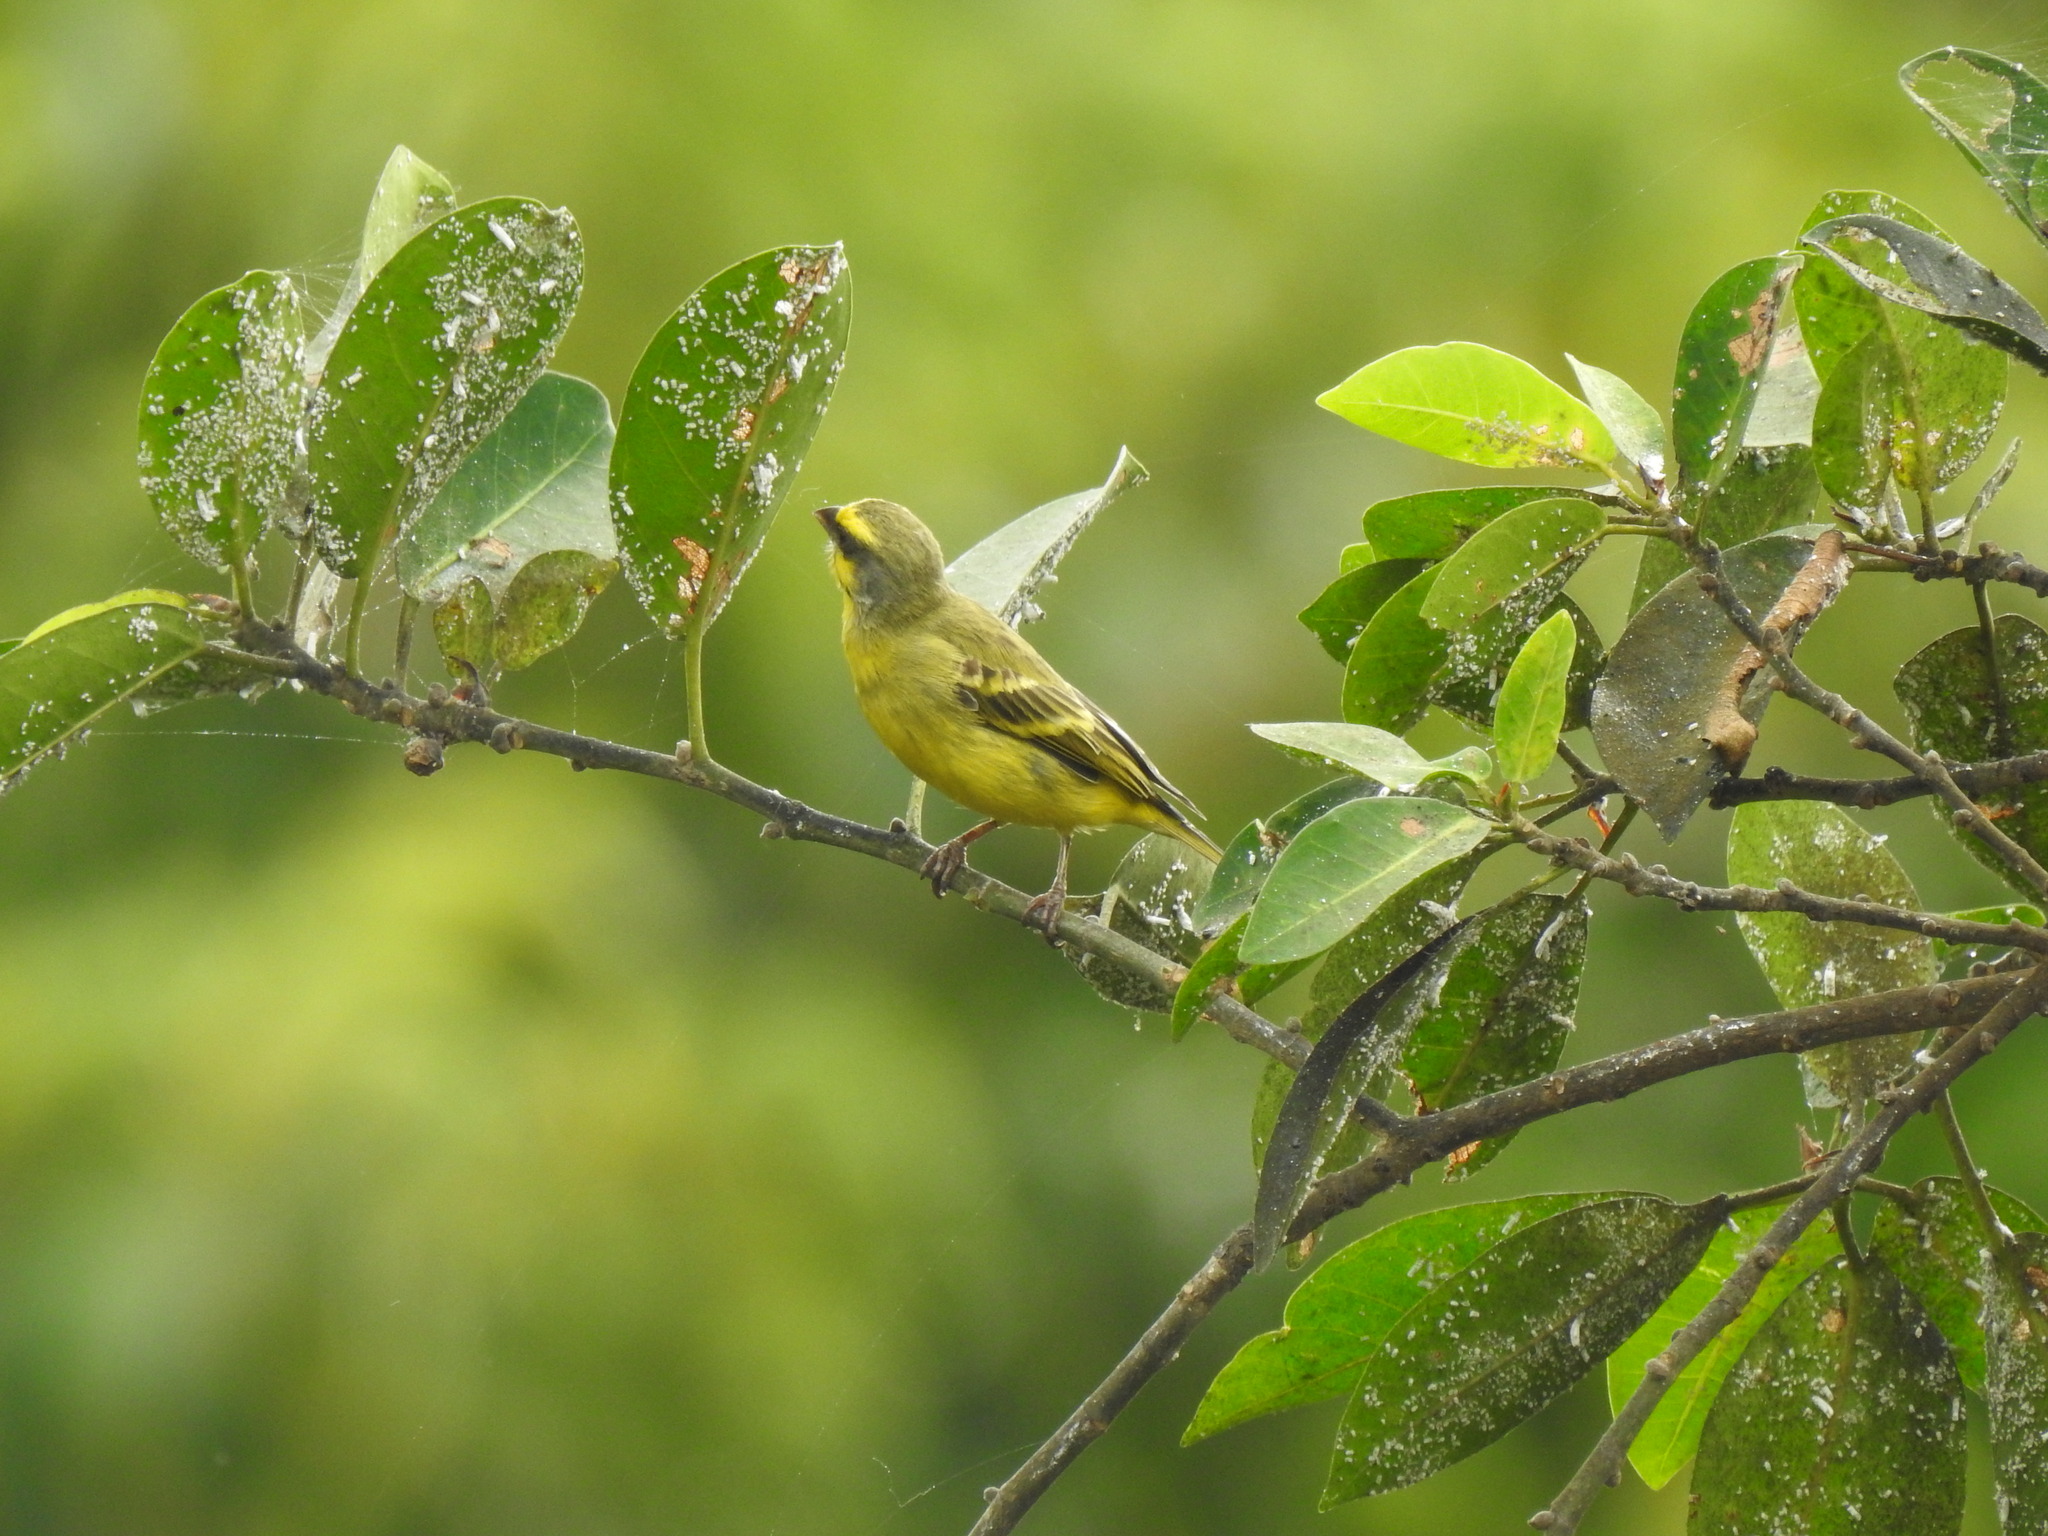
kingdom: Animalia
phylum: Chordata
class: Aves
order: Passeriformes
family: Fringillidae
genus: Crithagra
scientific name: Crithagra mozambica
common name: Yellow-fronted canary
